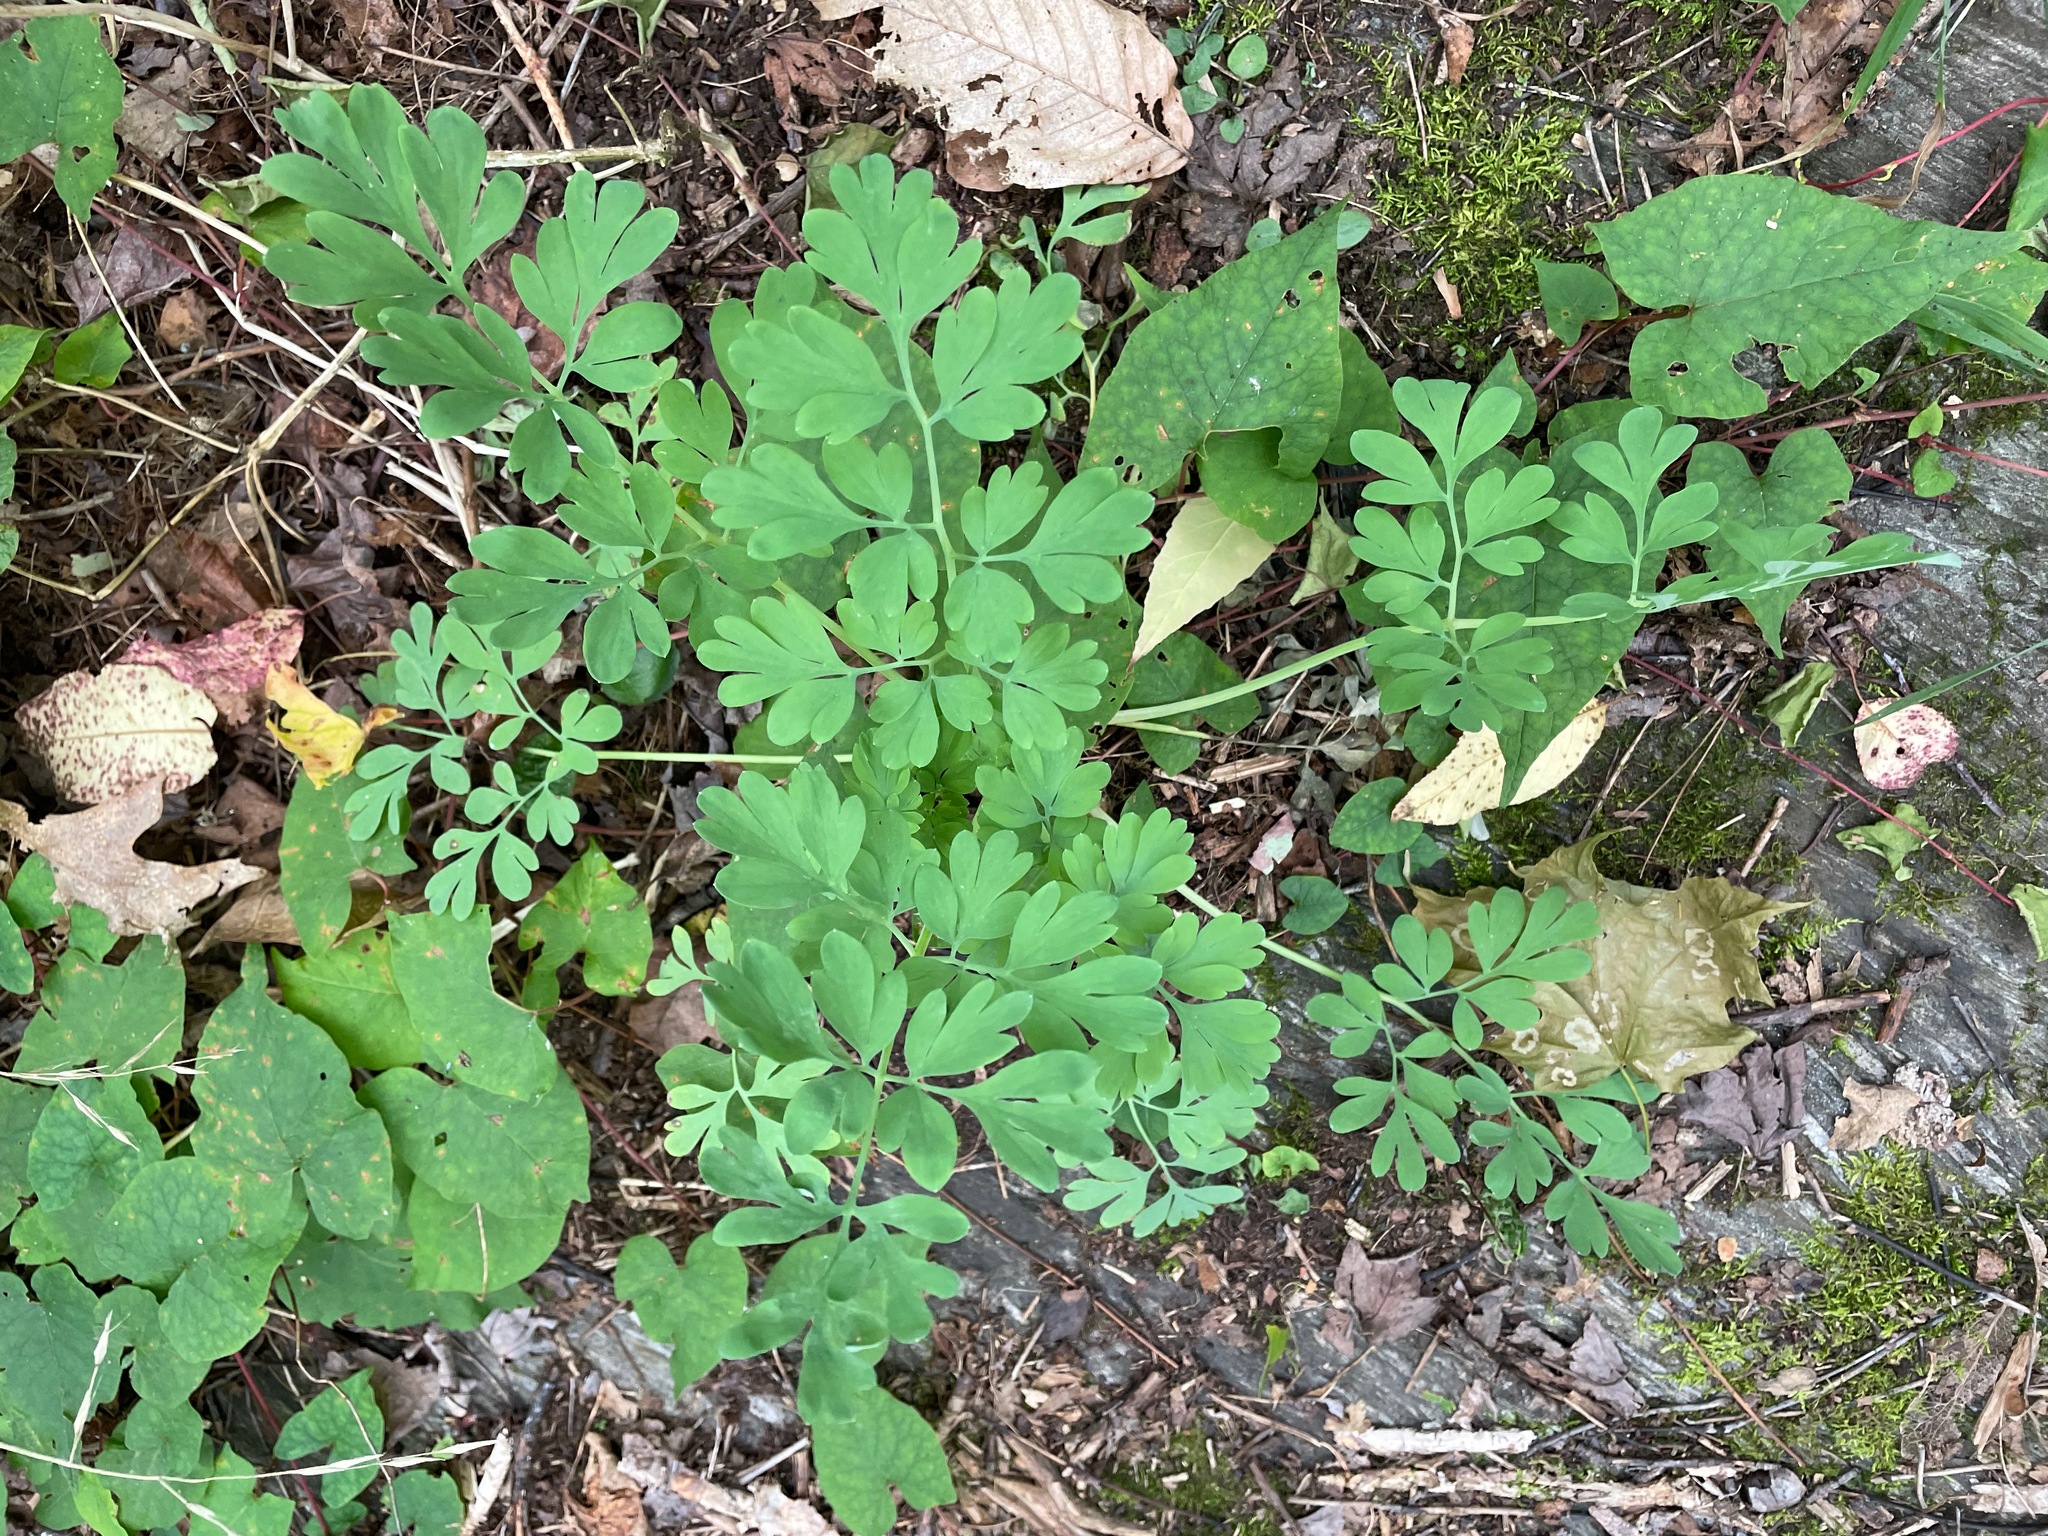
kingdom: Plantae
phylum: Tracheophyta
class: Magnoliopsida
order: Ranunculales
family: Papaveraceae
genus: Capnoides
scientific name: Capnoides sempervirens
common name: Rock harlequin
